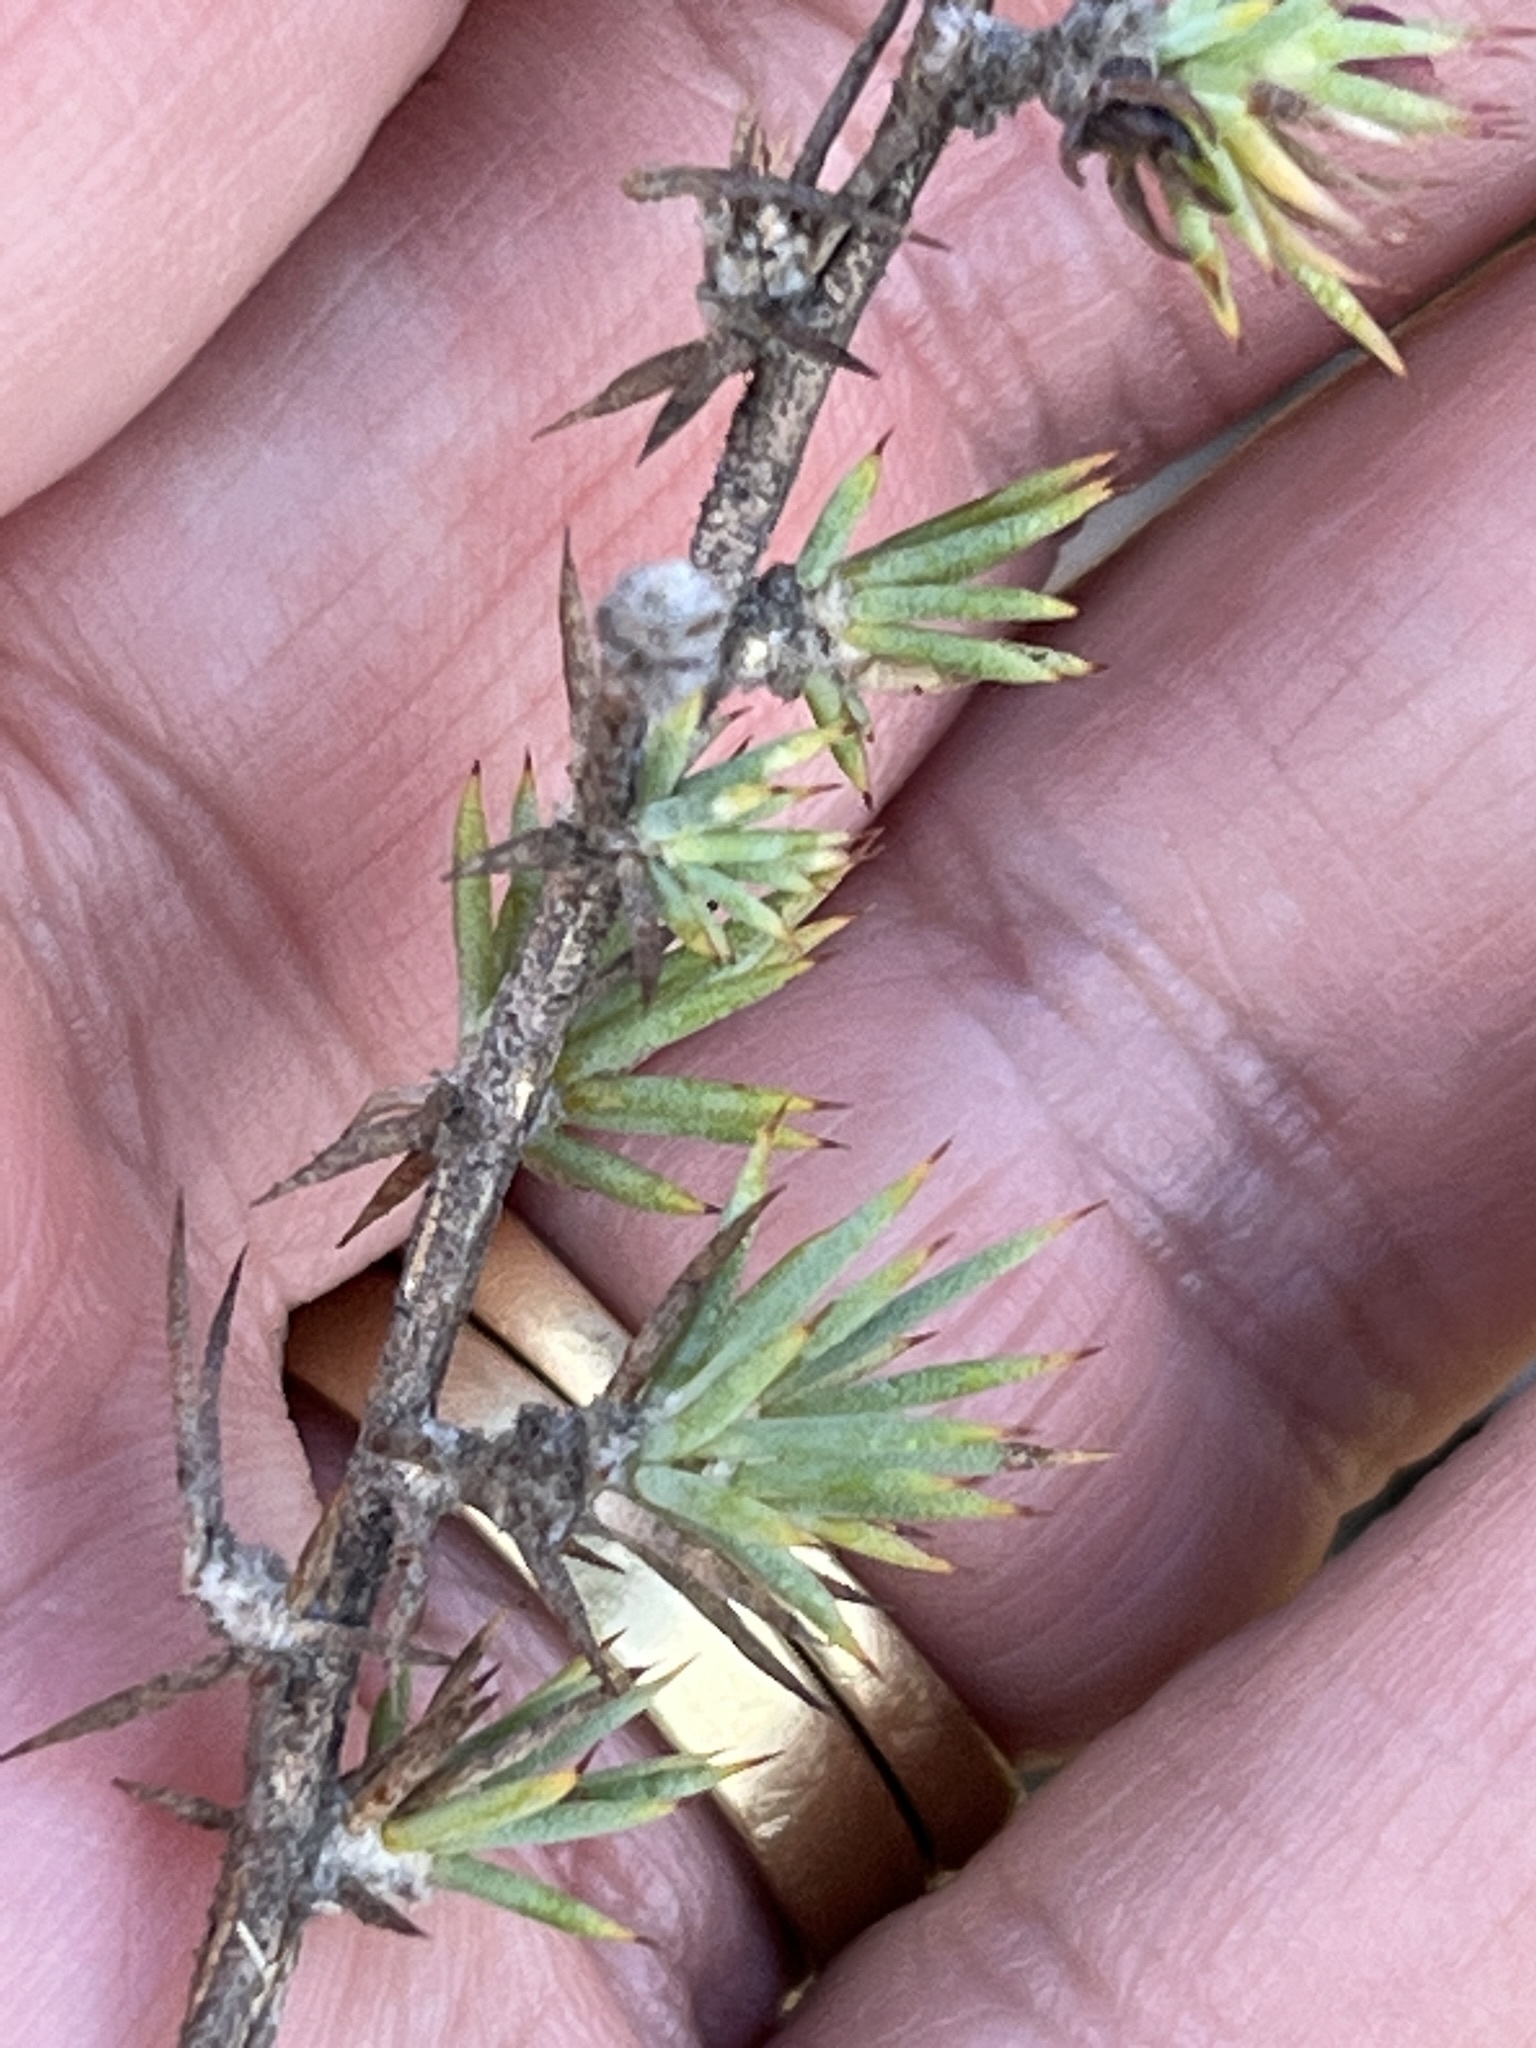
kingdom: Plantae
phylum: Tracheophyta
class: Magnoliopsida
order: Fabales
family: Fabaceae
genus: Aspalathus
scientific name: Aspalathus potbergensis
